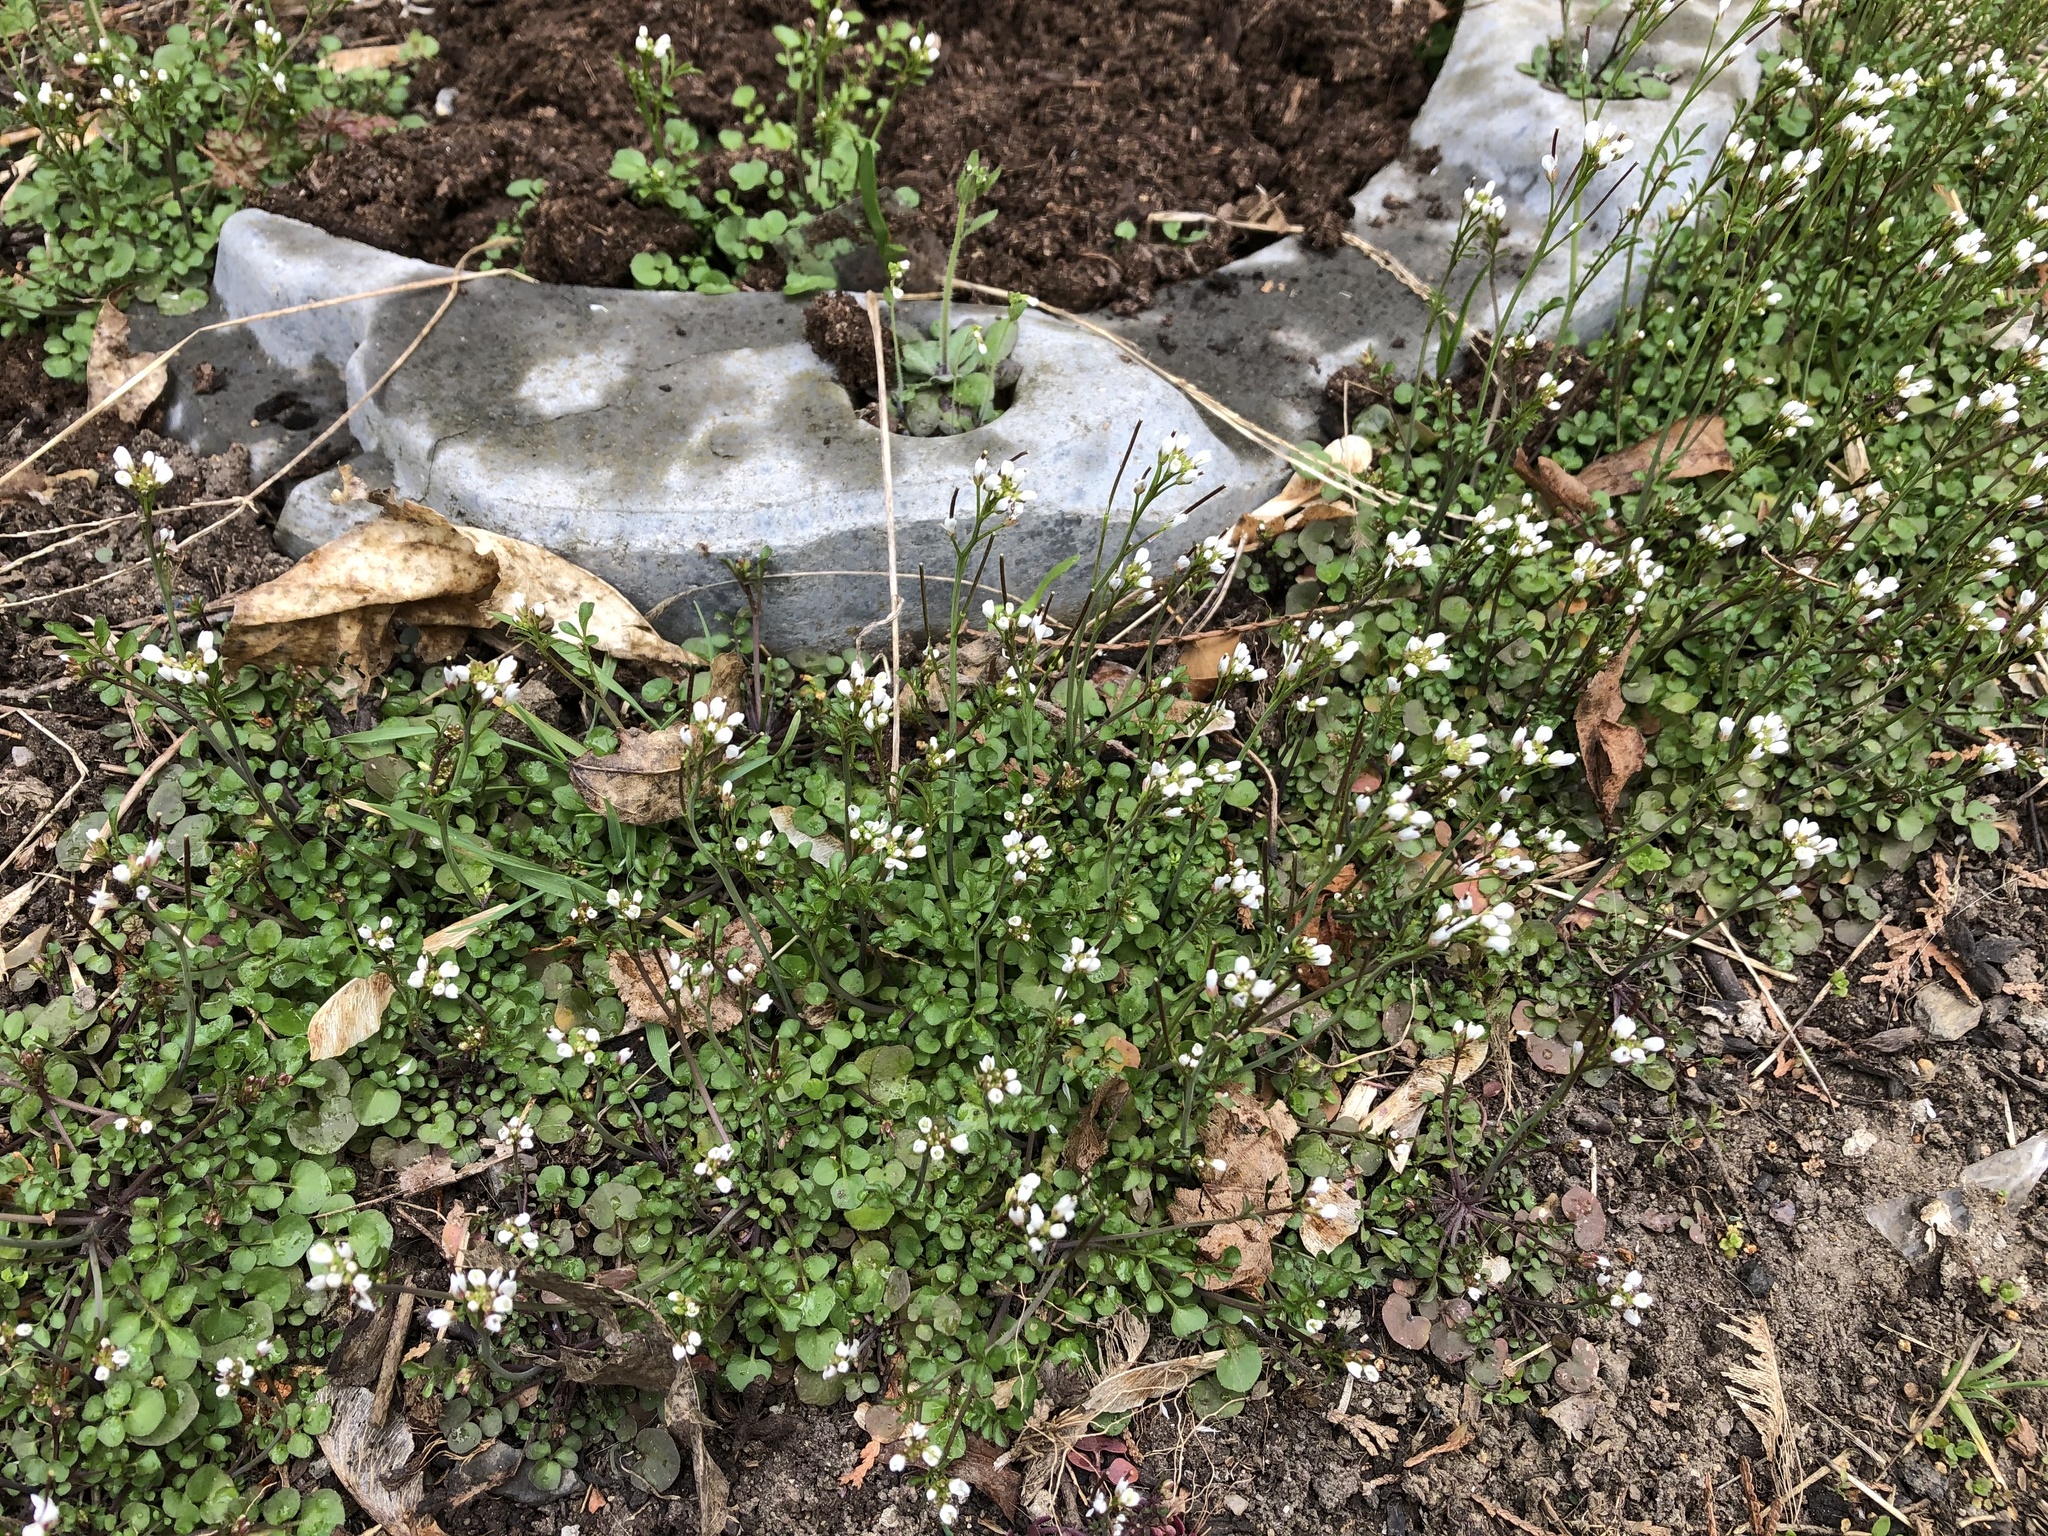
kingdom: Plantae
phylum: Tracheophyta
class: Magnoliopsida
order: Brassicales
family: Brassicaceae
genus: Cardamine
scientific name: Cardamine hirsuta
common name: Hairy bittercress
